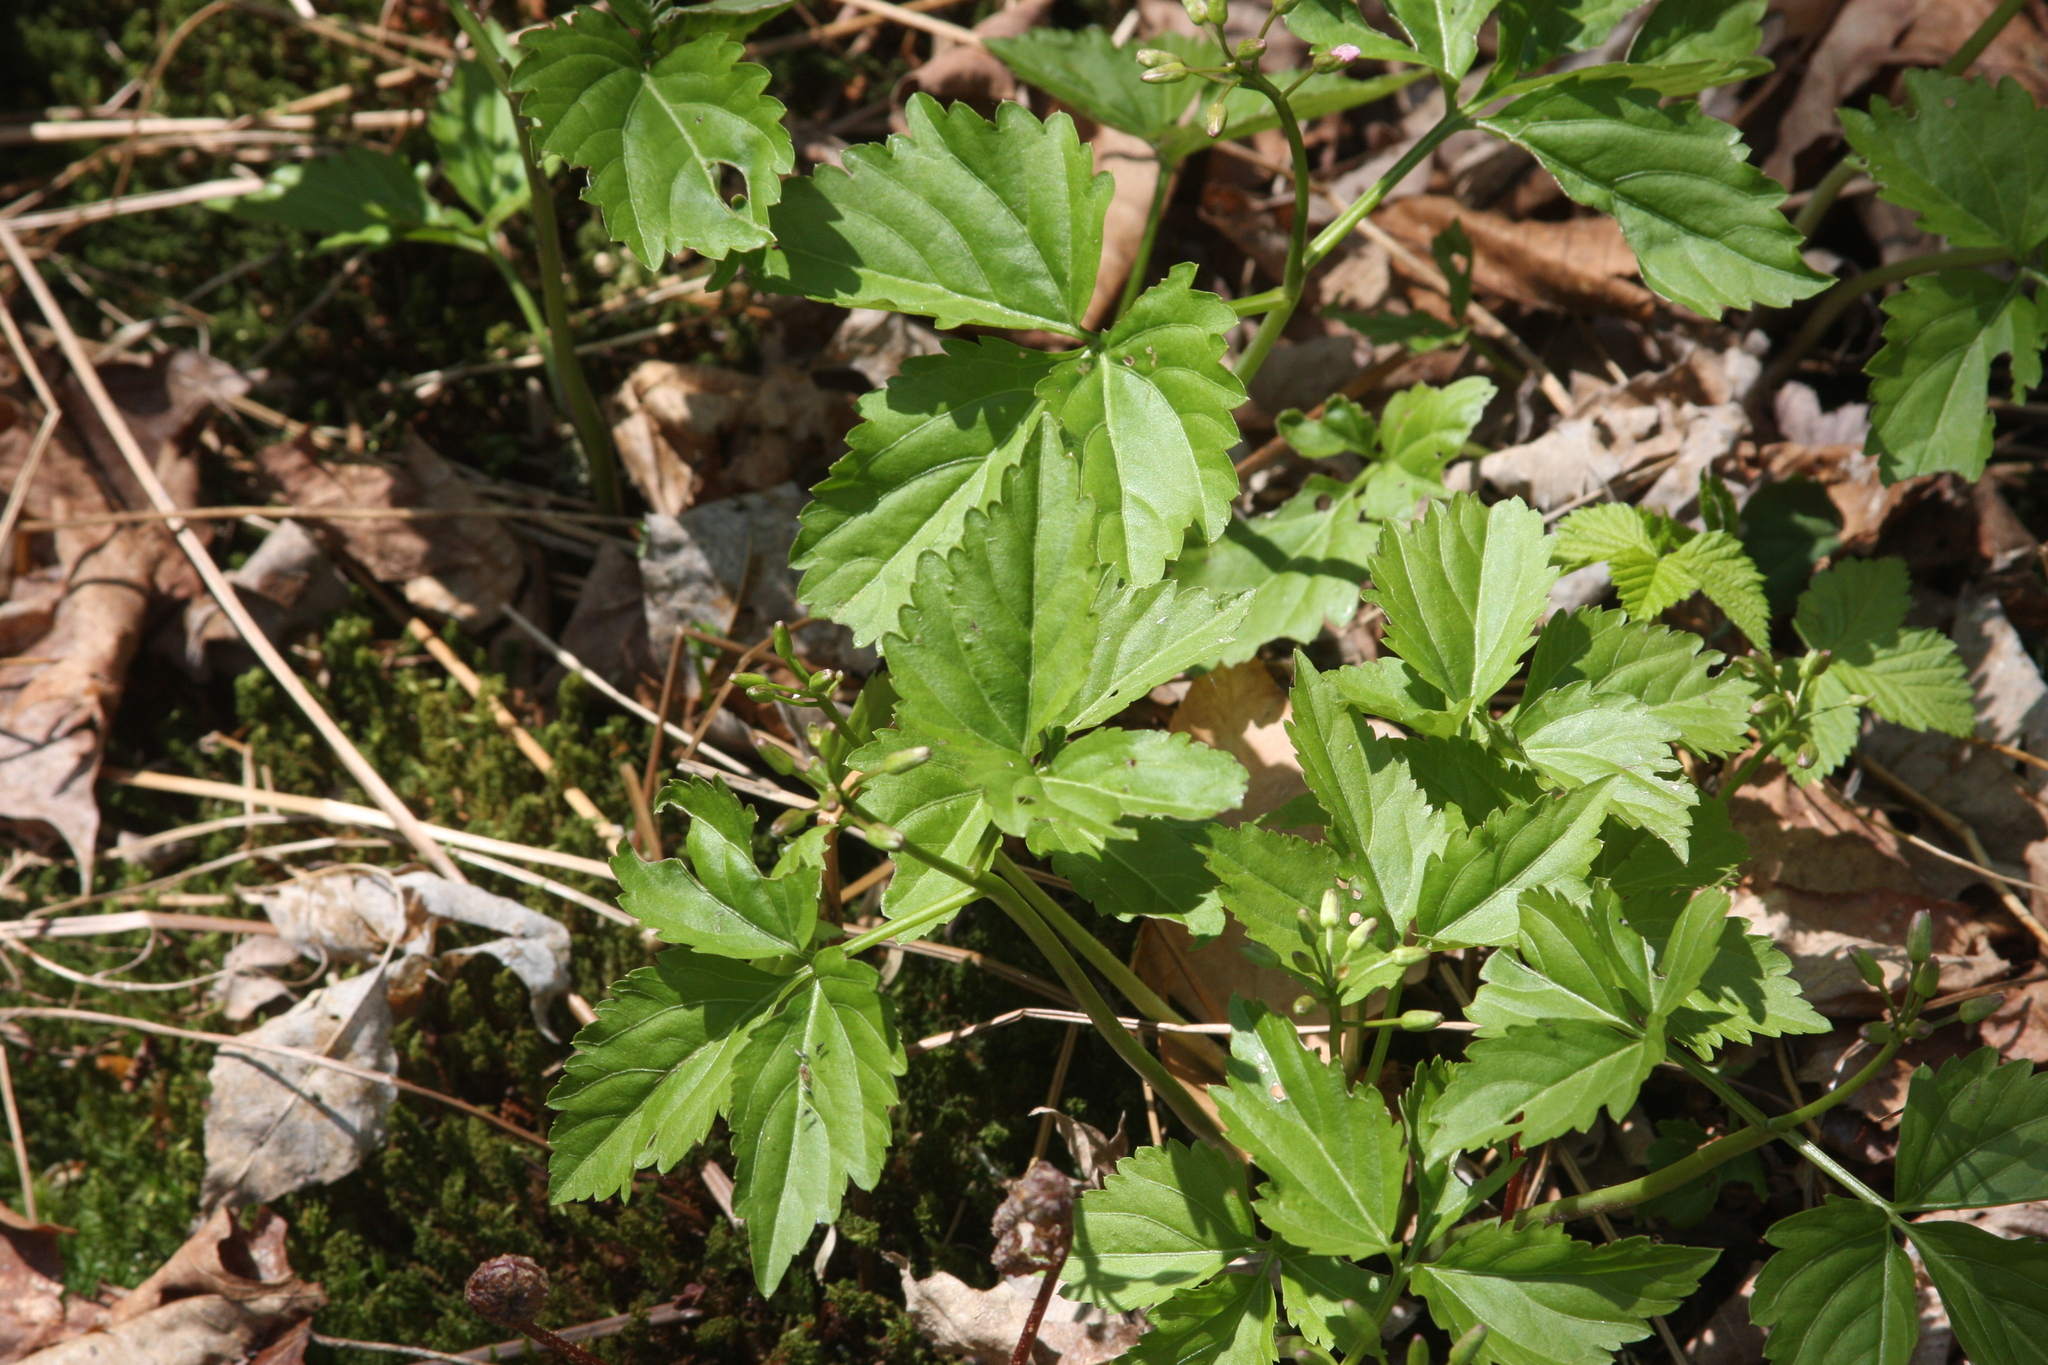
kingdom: Plantae
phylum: Tracheophyta
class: Magnoliopsida
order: Brassicales
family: Brassicaceae
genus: Cardamine
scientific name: Cardamine diphylla
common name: Broad-leaved toothwort
